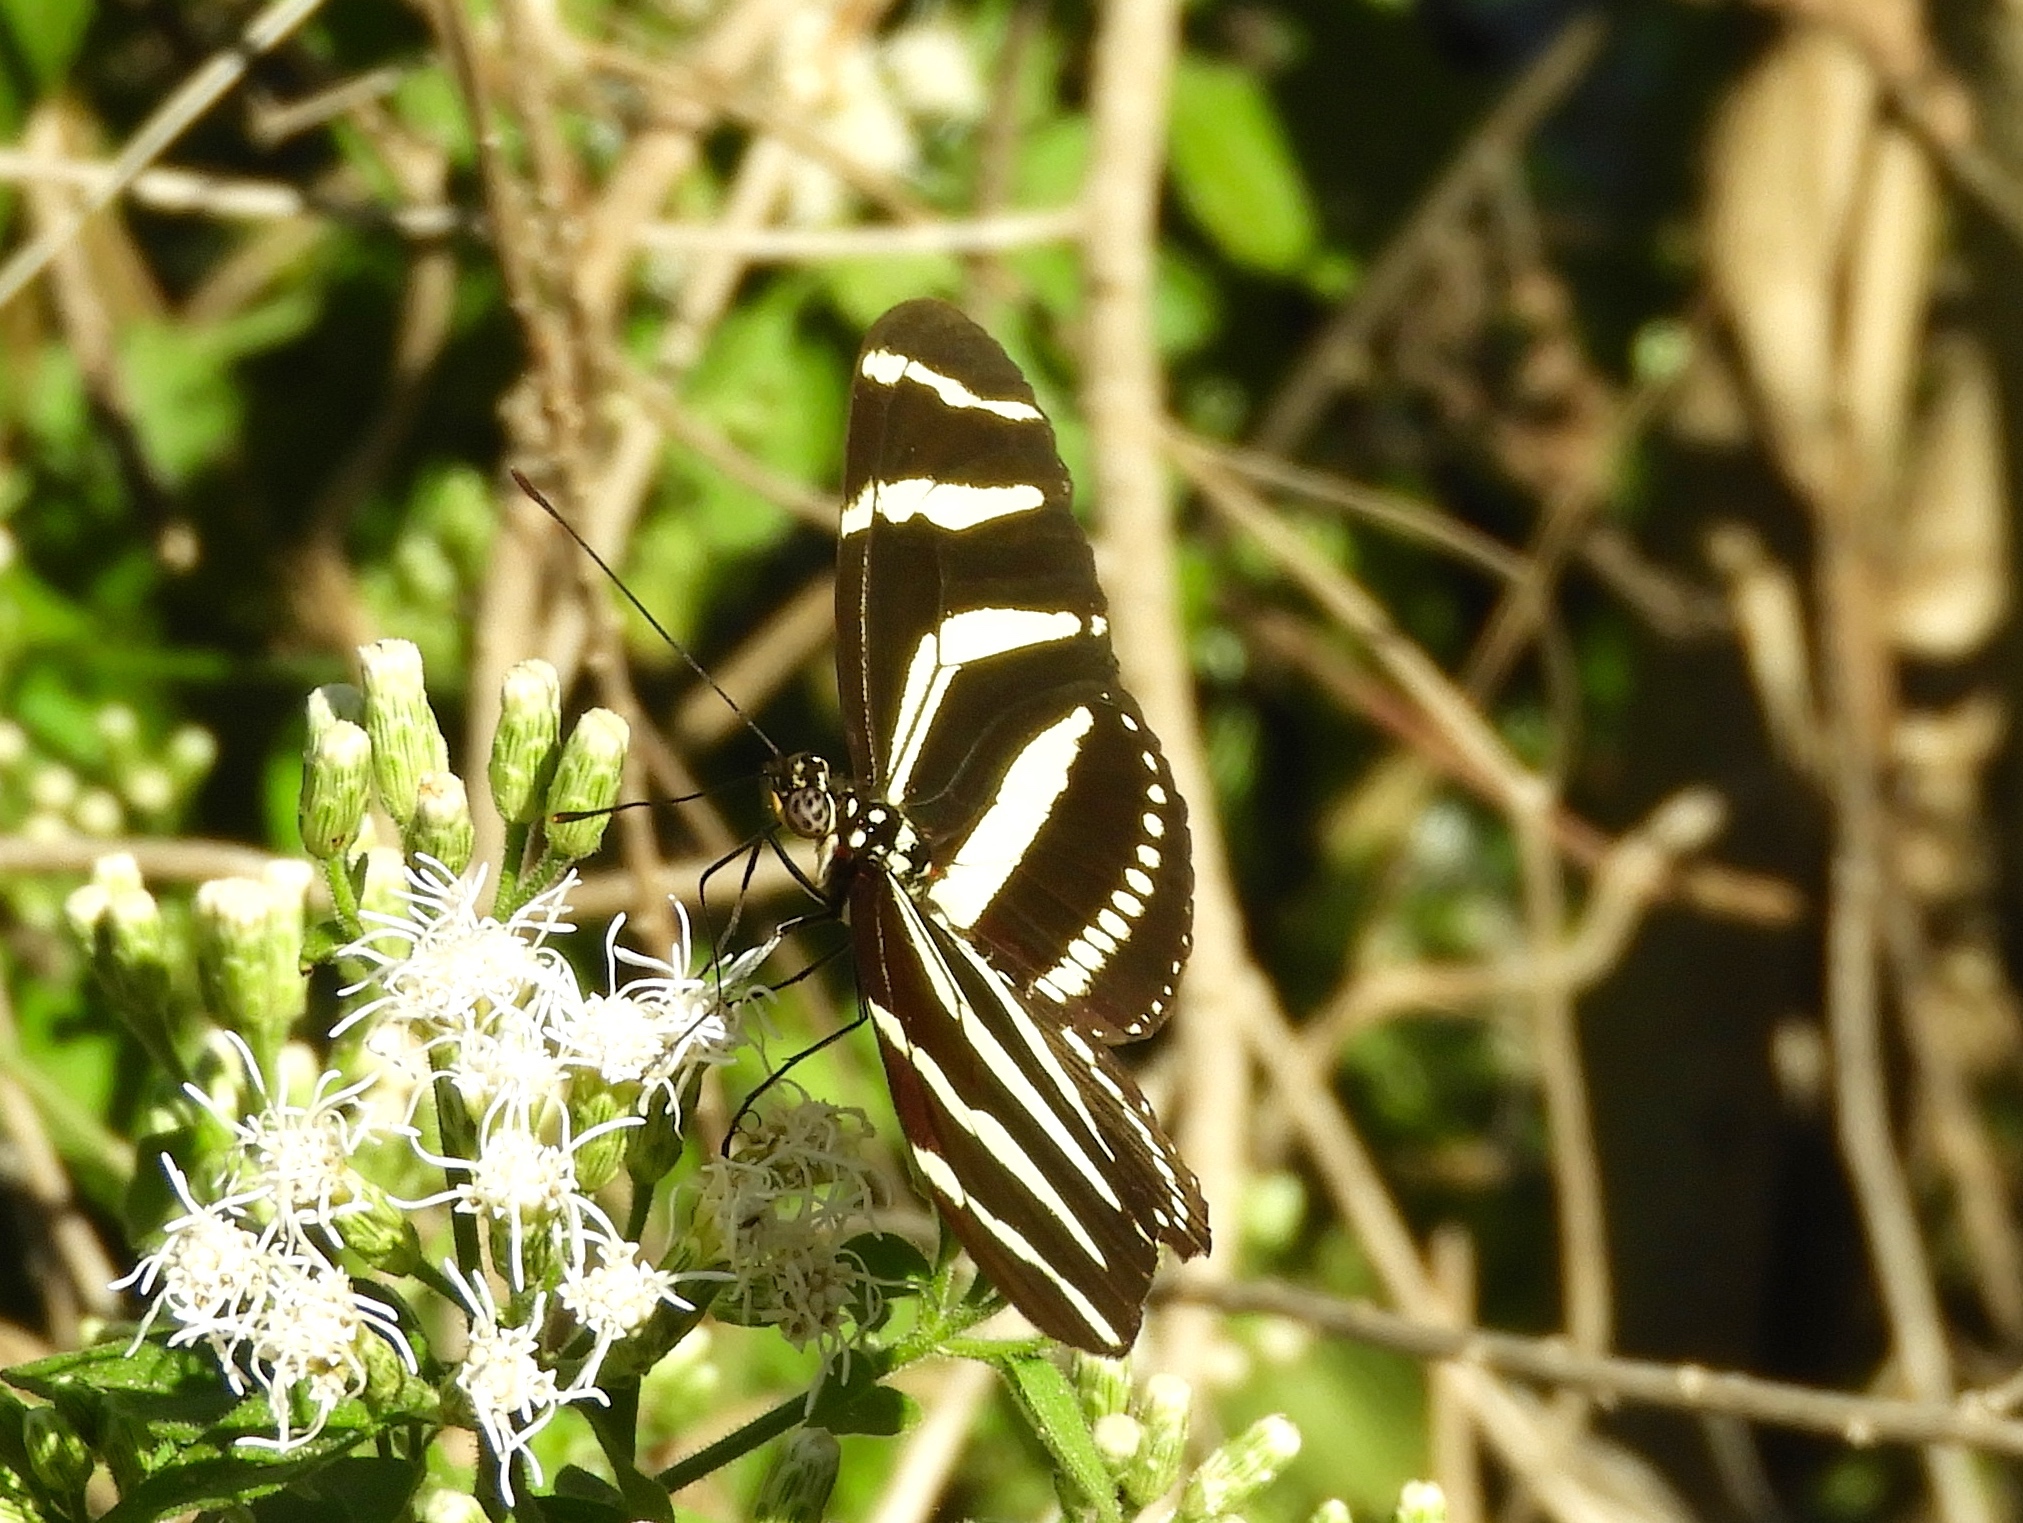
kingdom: Animalia
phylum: Arthropoda
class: Insecta
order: Lepidoptera
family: Nymphalidae
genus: Heliconius
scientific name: Heliconius charithonia
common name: Zebra long wing
